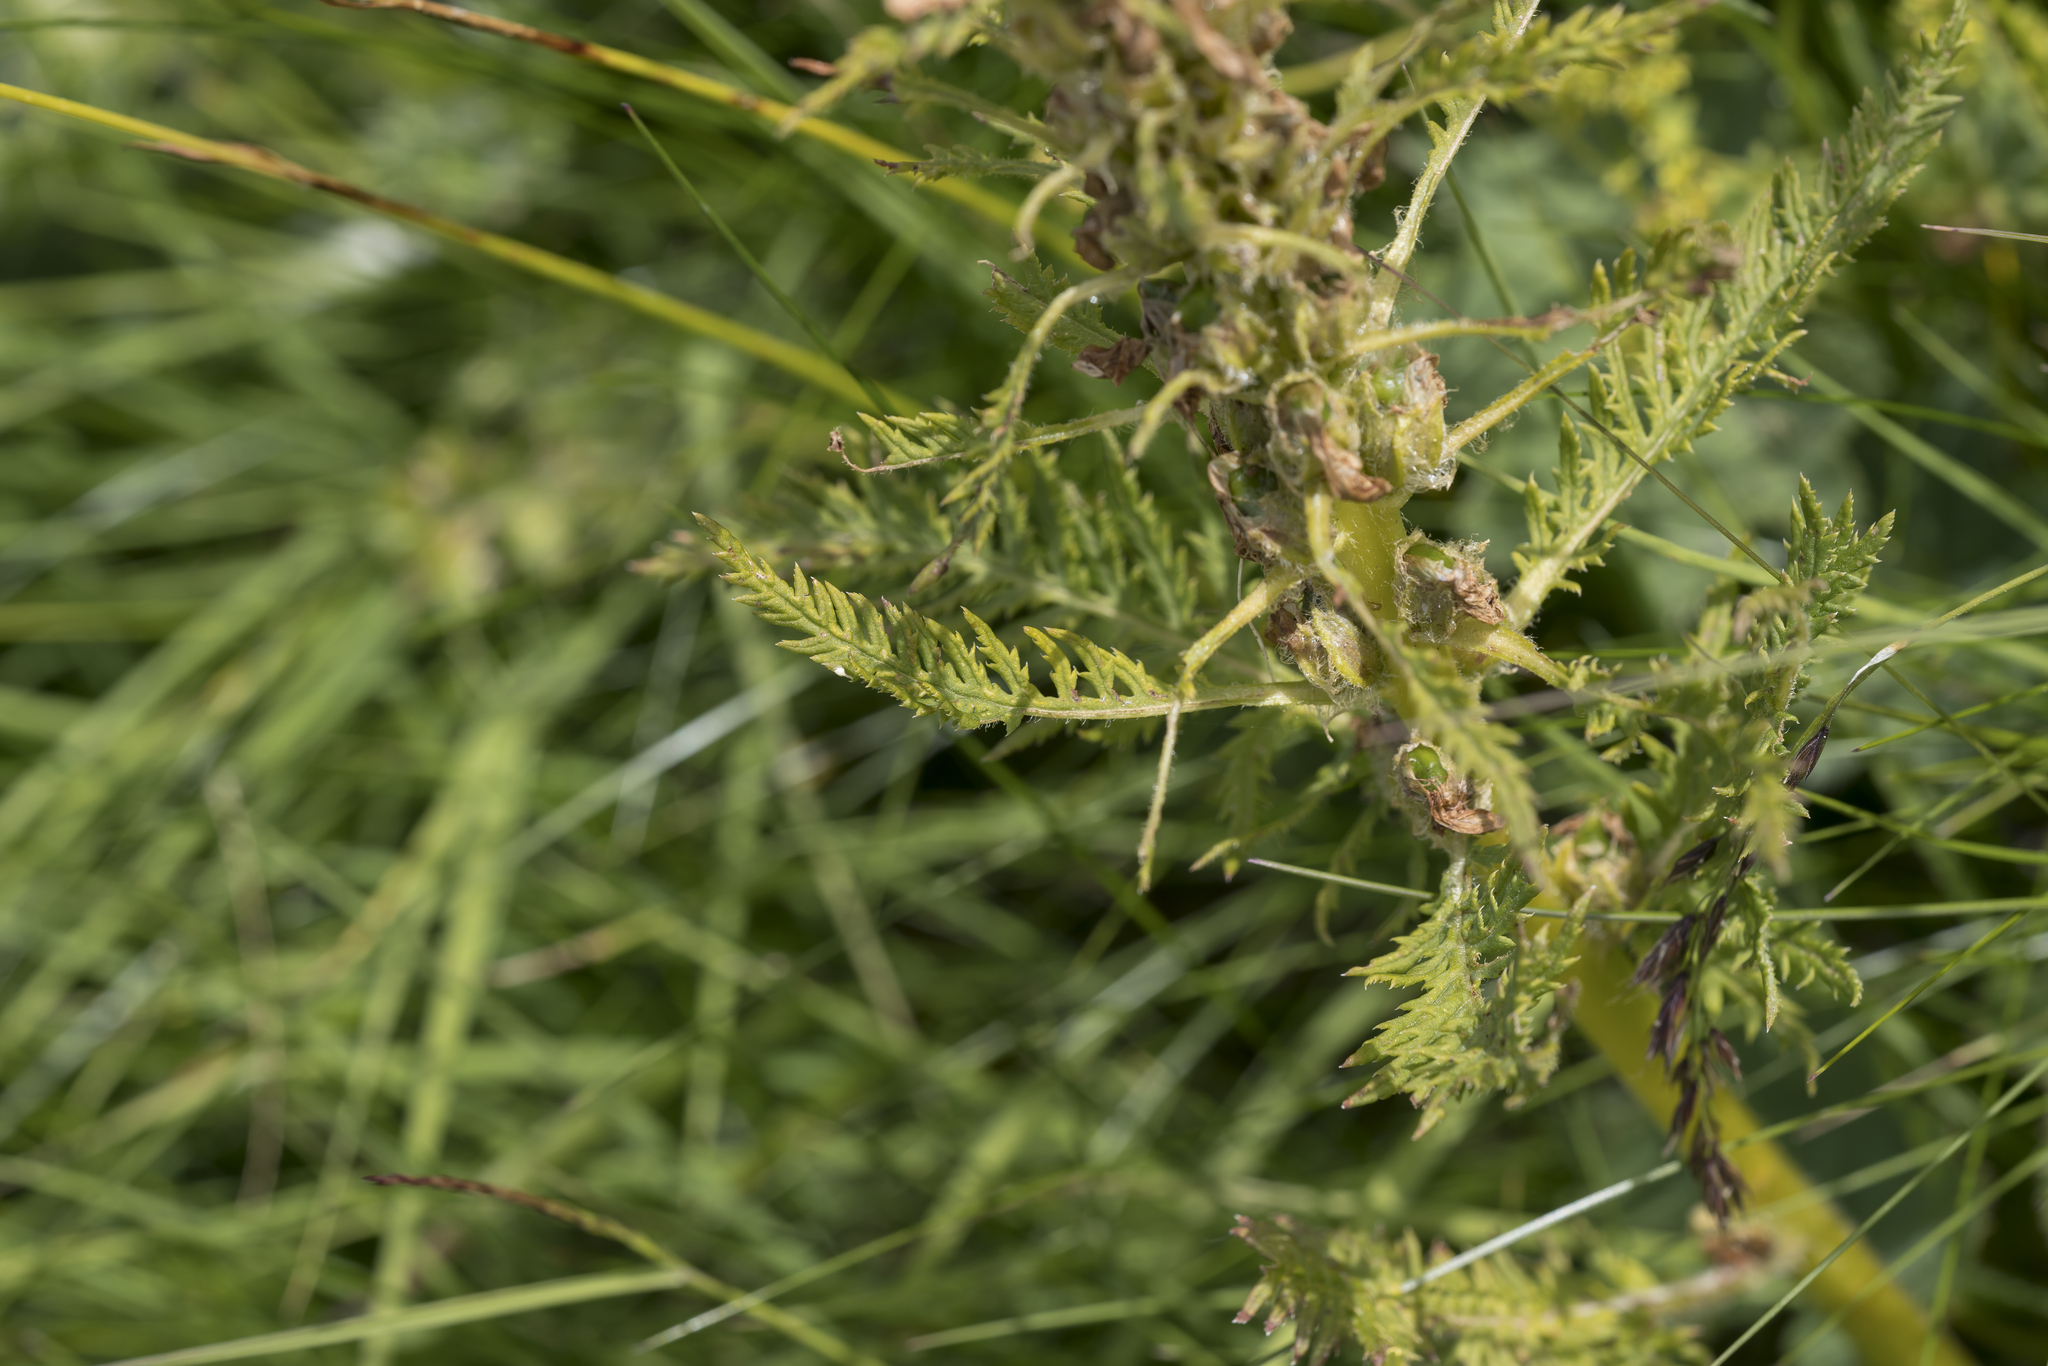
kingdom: Plantae
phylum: Tracheophyta
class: Magnoliopsida
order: Lamiales
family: Orobanchaceae
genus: Pedicularis
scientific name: Pedicularis foliosa
